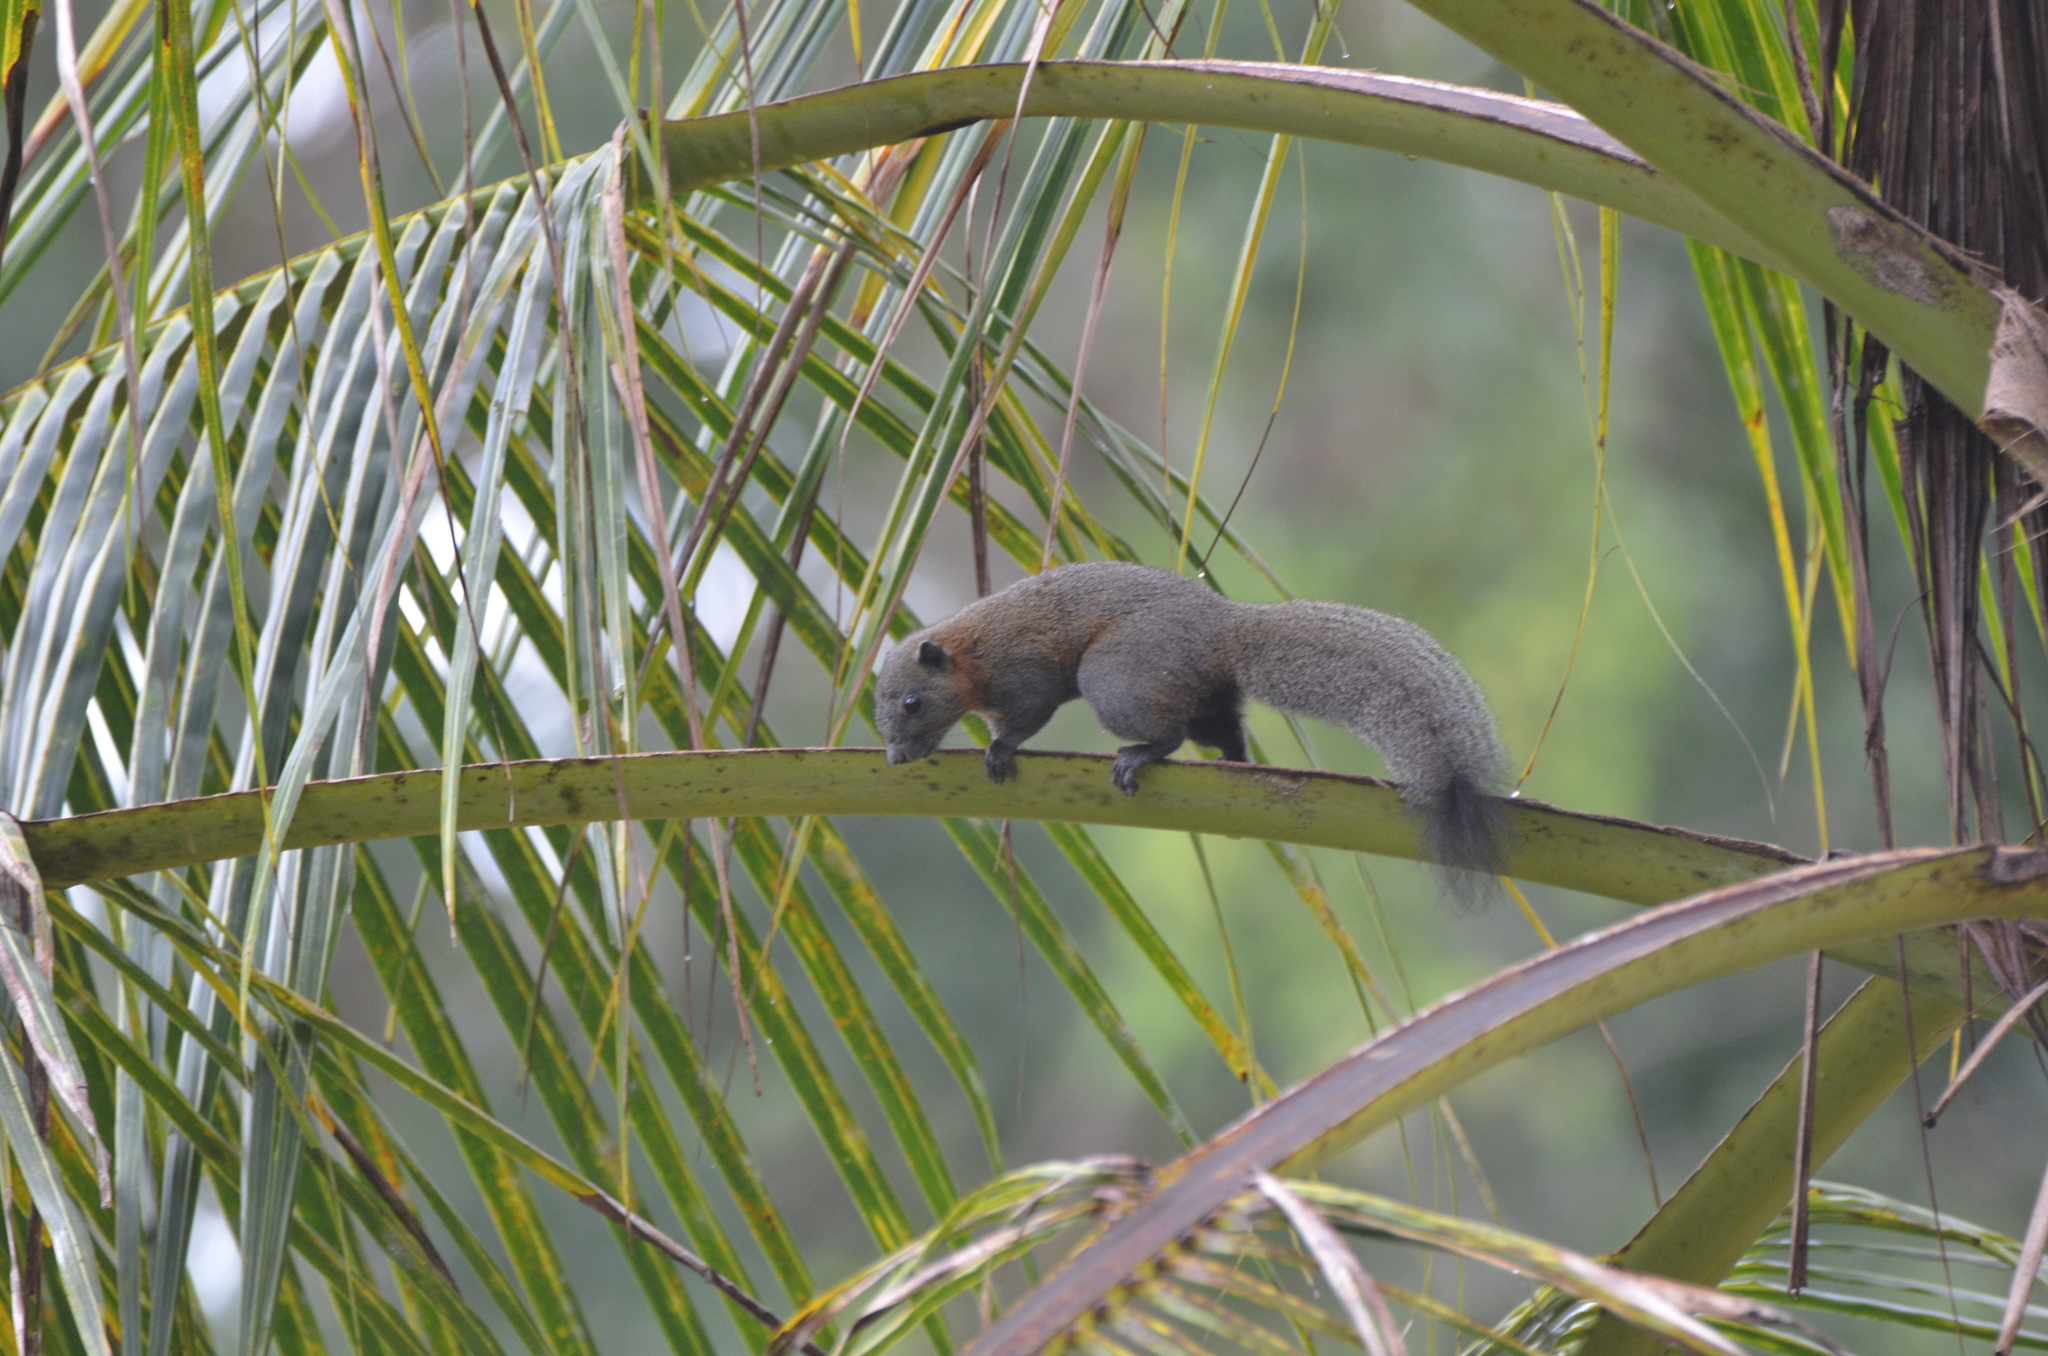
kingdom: Animalia
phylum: Chordata
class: Mammalia
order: Rodentia
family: Sciuridae
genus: Callosciurus
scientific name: Callosciurus caniceps
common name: Gray-bellied squirrel
